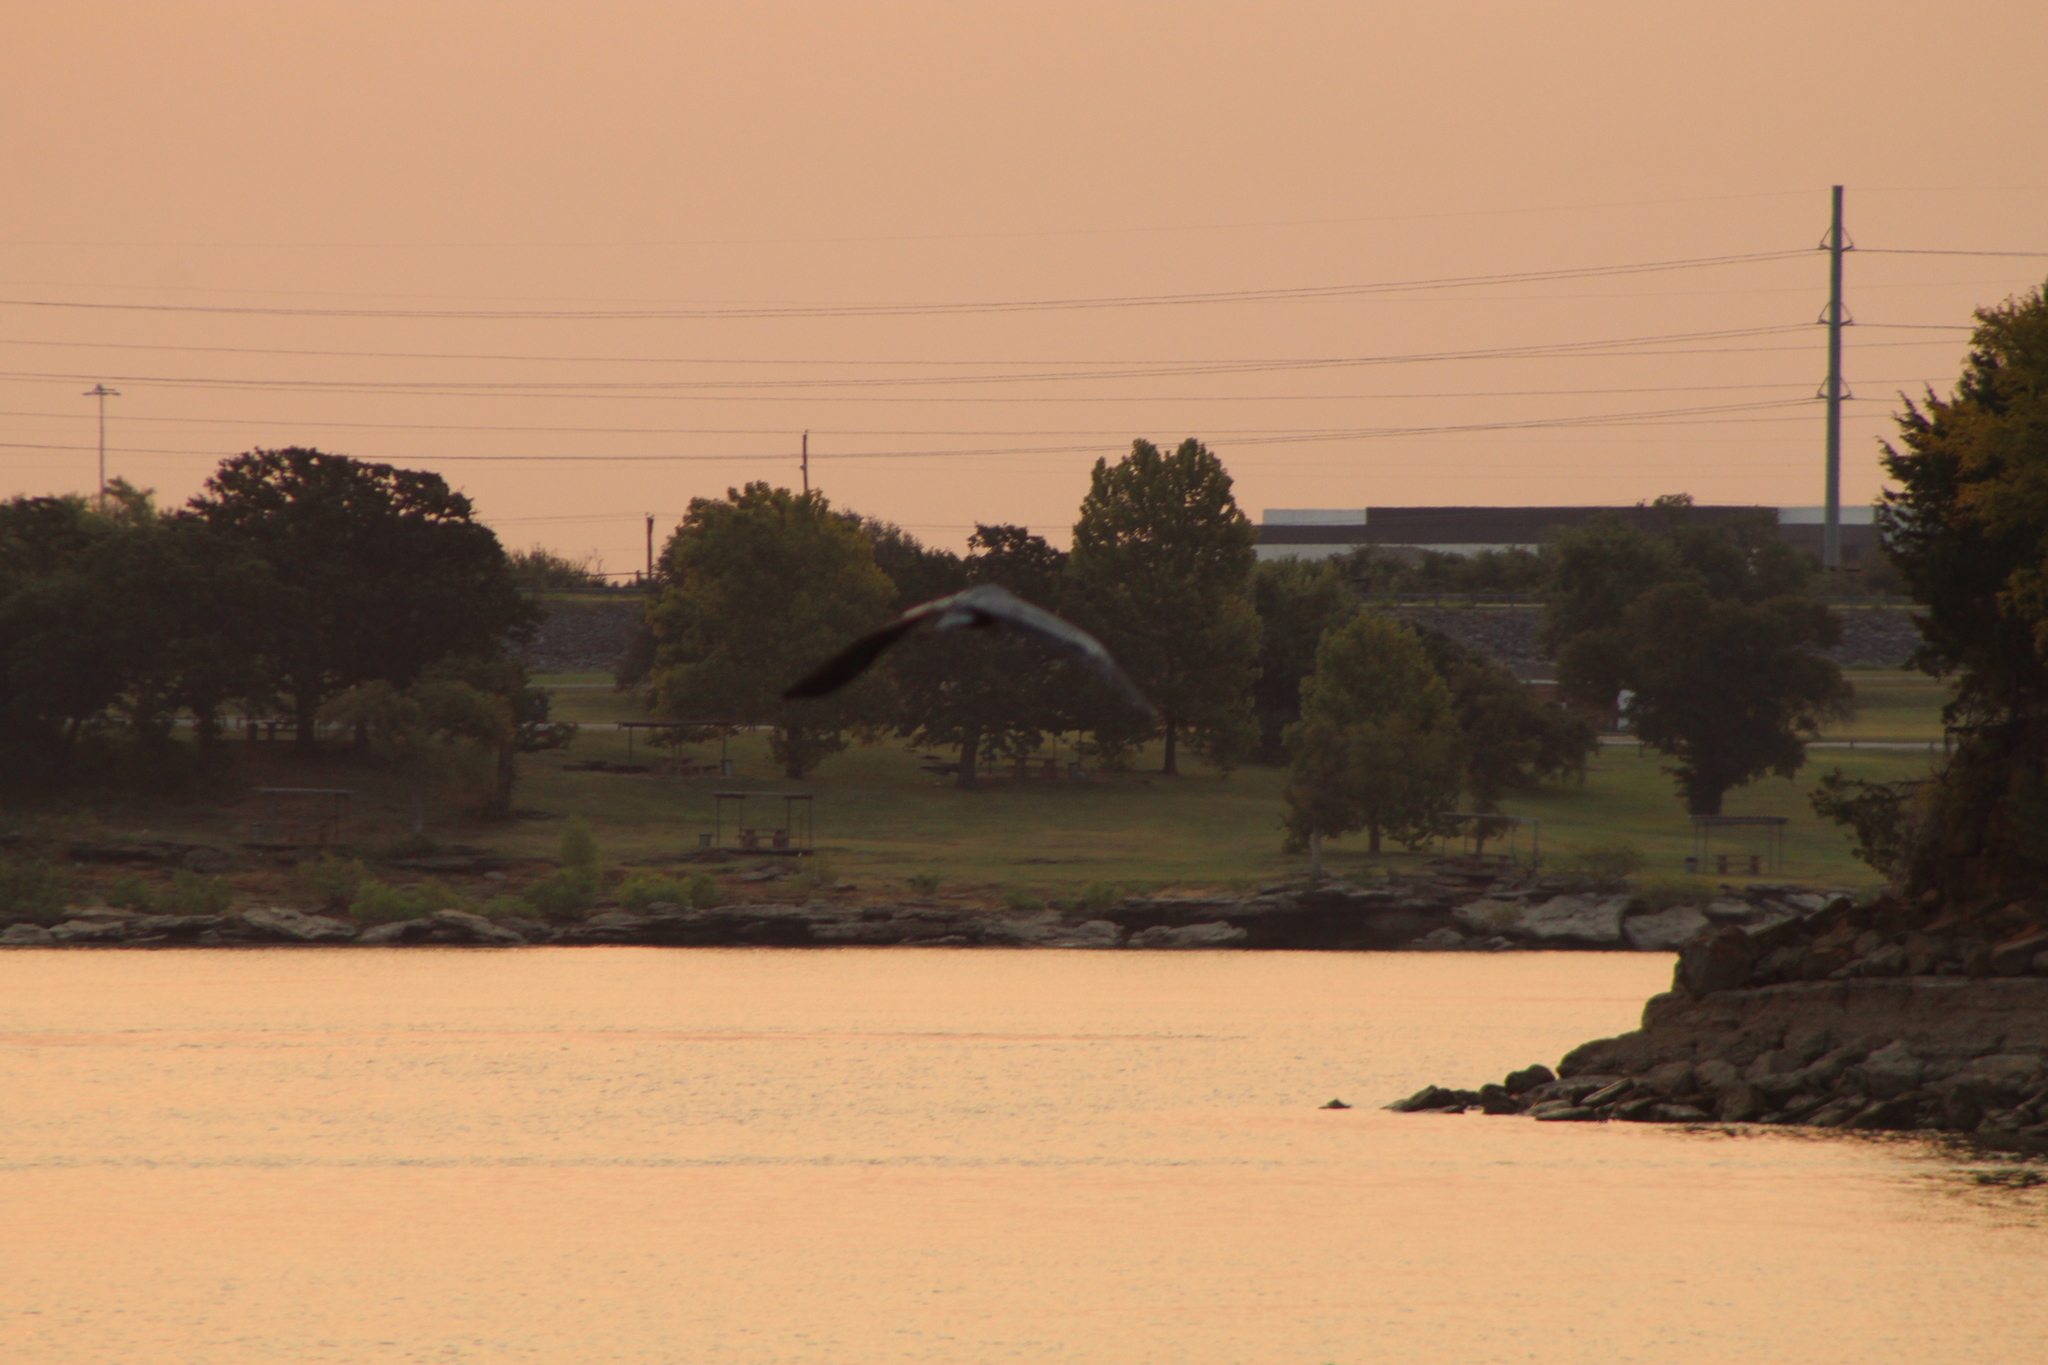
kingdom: Animalia
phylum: Chordata
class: Aves
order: Pelecaniformes
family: Ardeidae
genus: Ardea
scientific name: Ardea herodias
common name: Great blue heron
